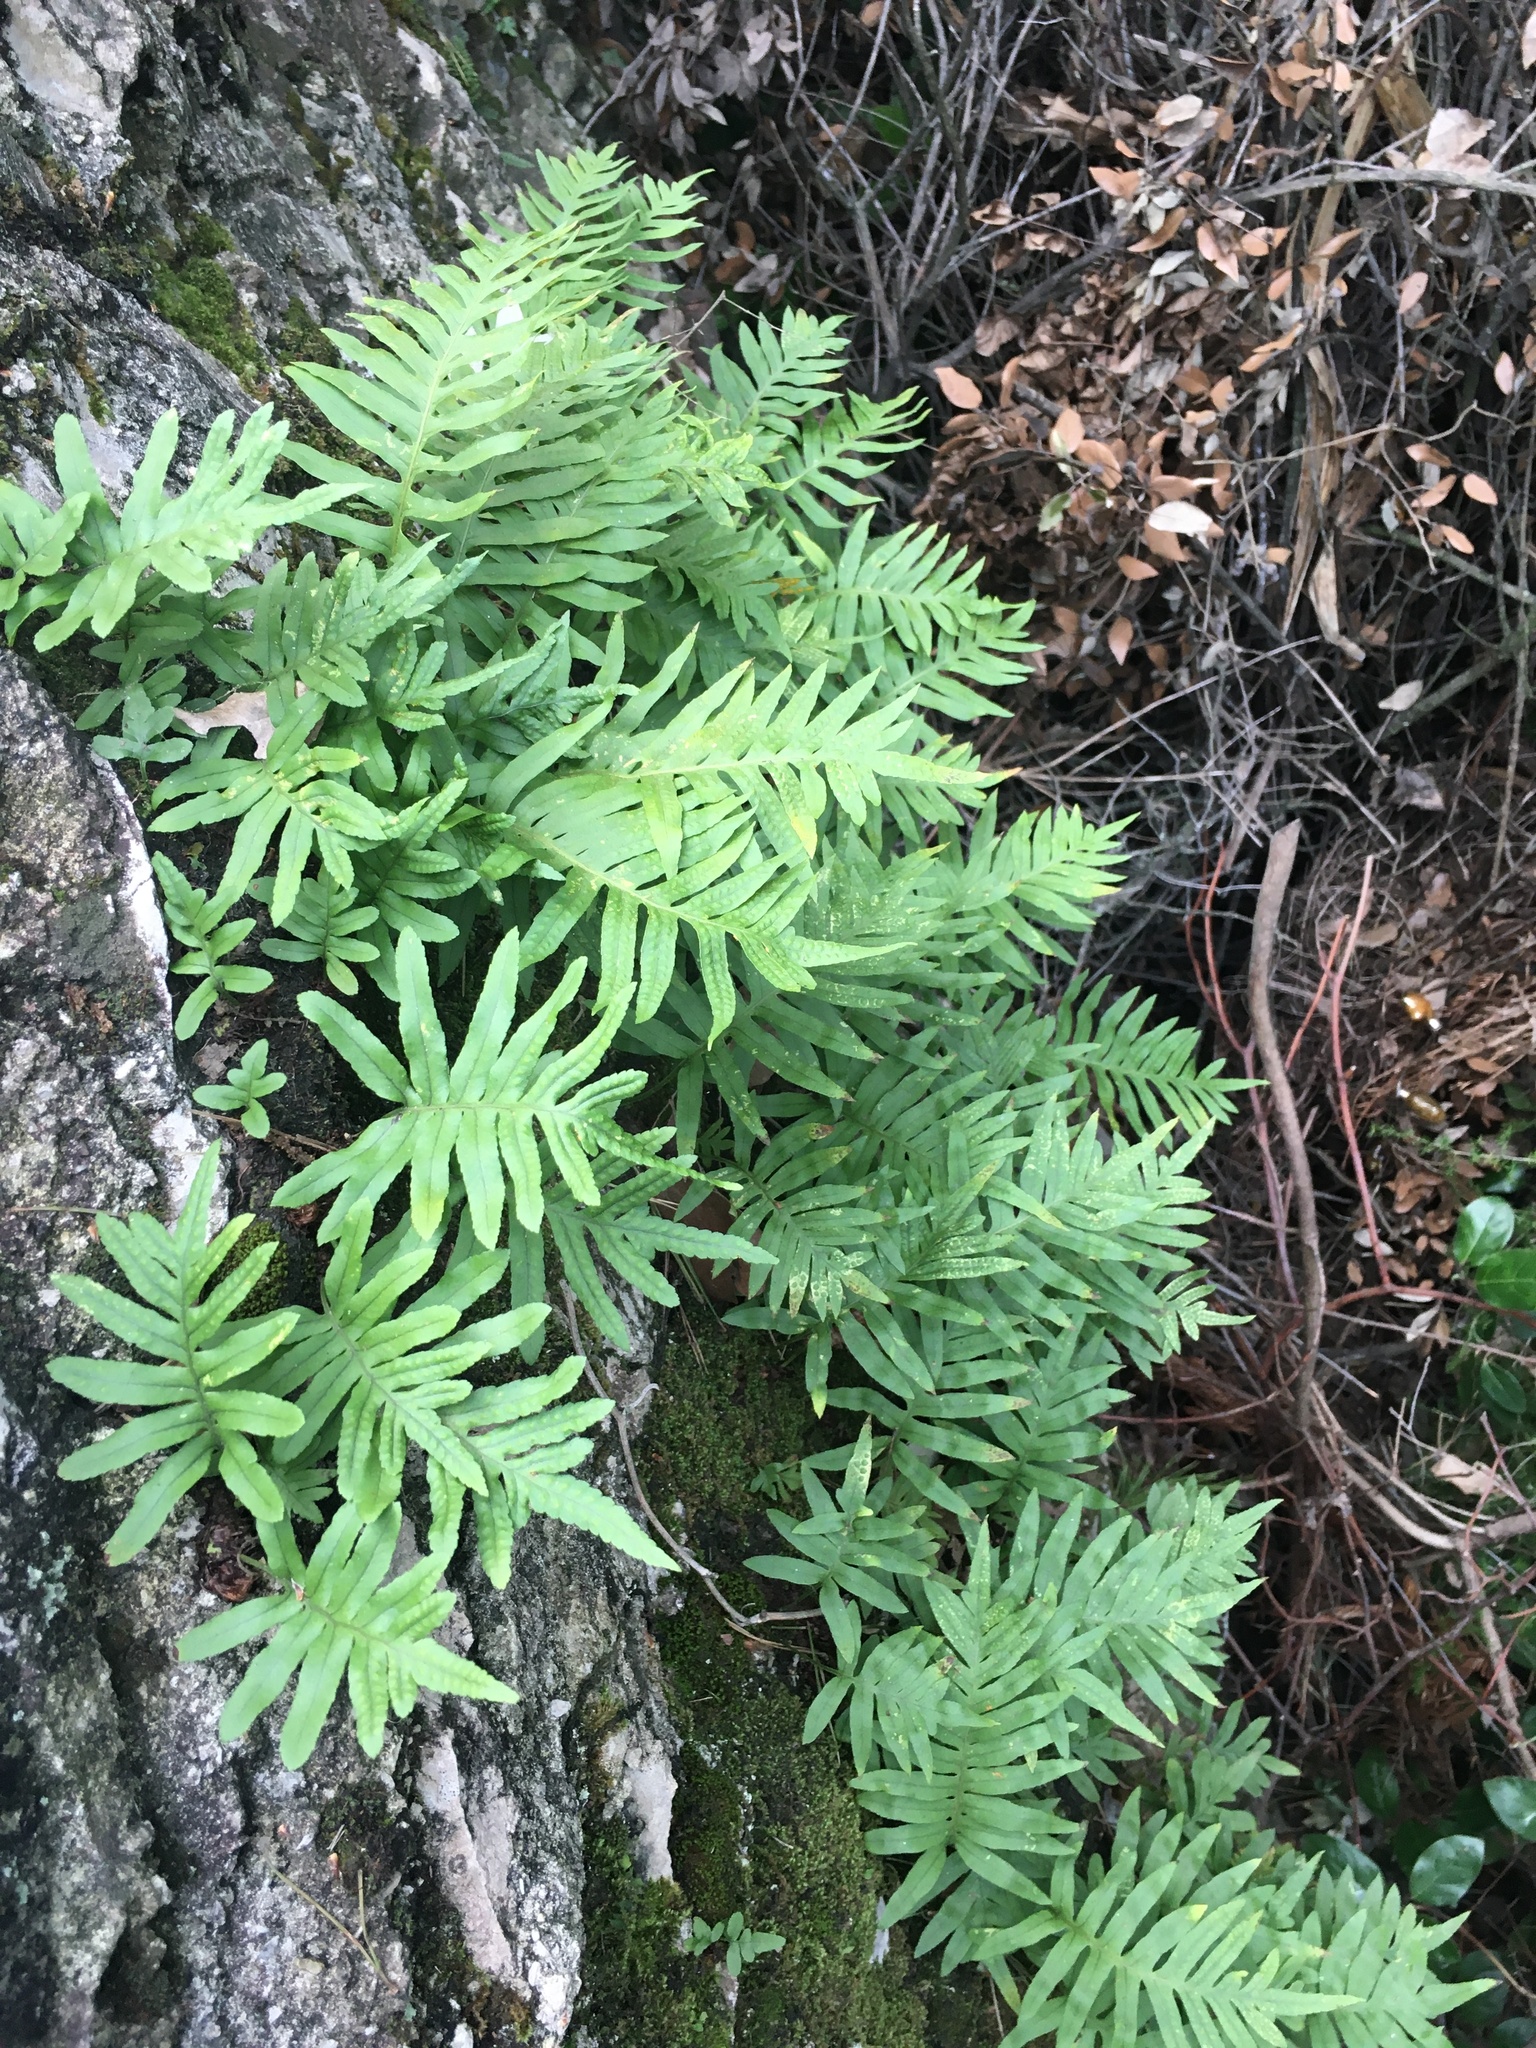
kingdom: Plantae
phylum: Tracheophyta
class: Polypodiopsida
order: Polypodiales
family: Polypodiaceae
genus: Polypodium
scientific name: Polypodium cambricum
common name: Southern polypody
